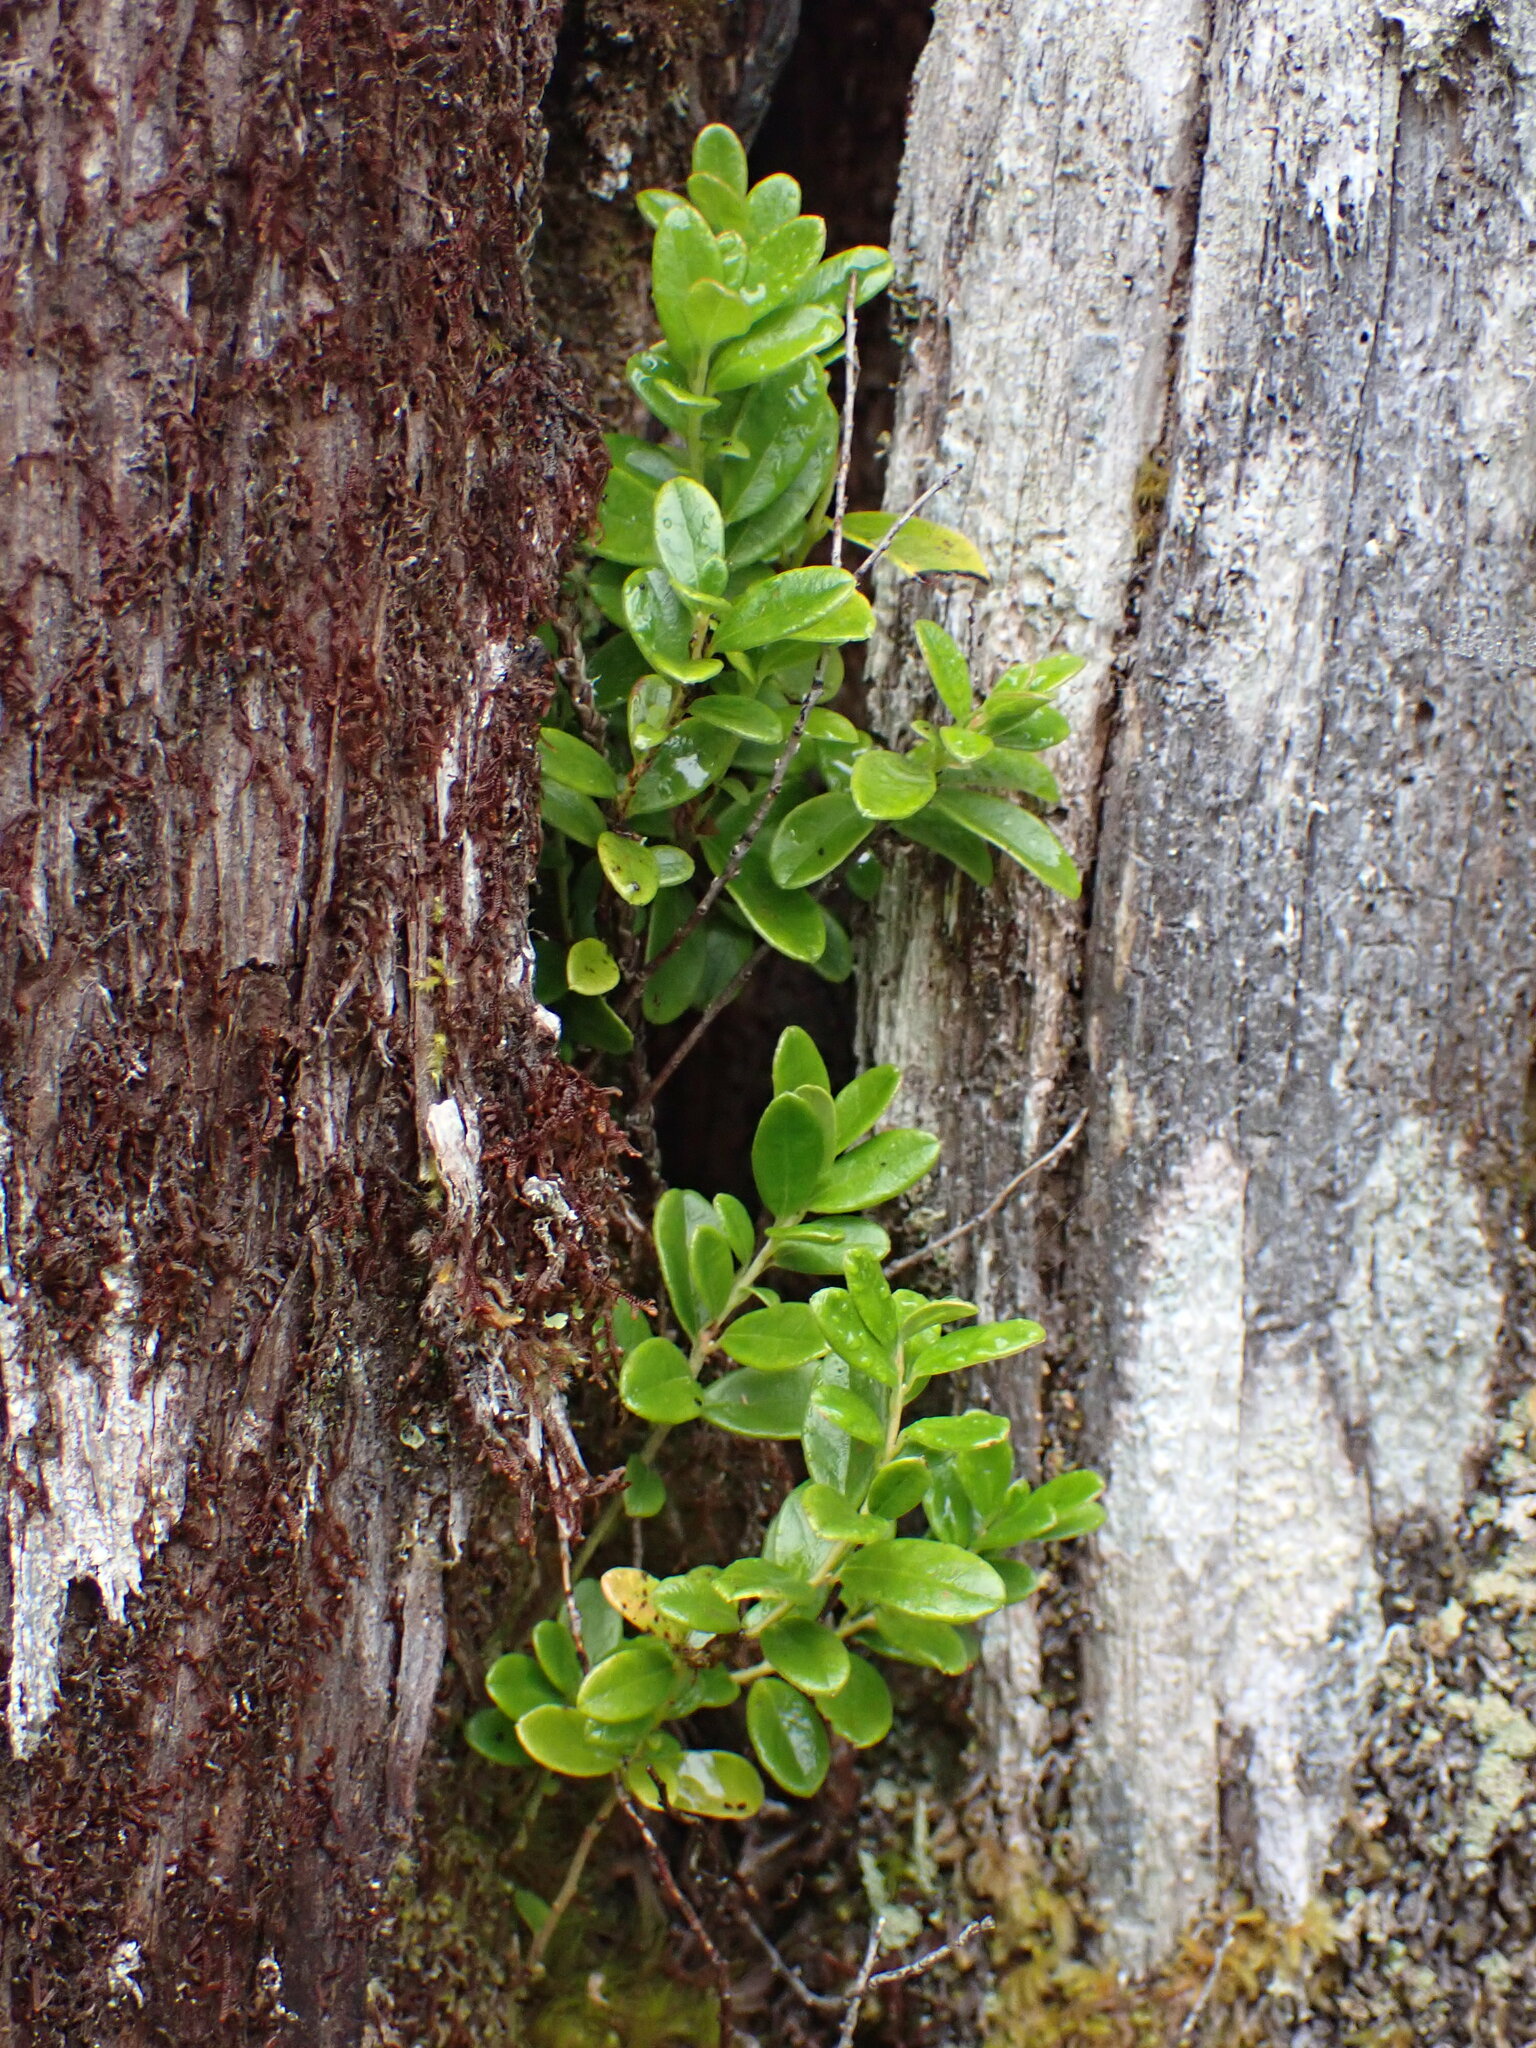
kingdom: Plantae
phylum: Tracheophyta
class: Magnoliopsida
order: Ericales
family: Ericaceae
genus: Vaccinium
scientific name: Vaccinium vitis-idaea
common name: Cowberry
